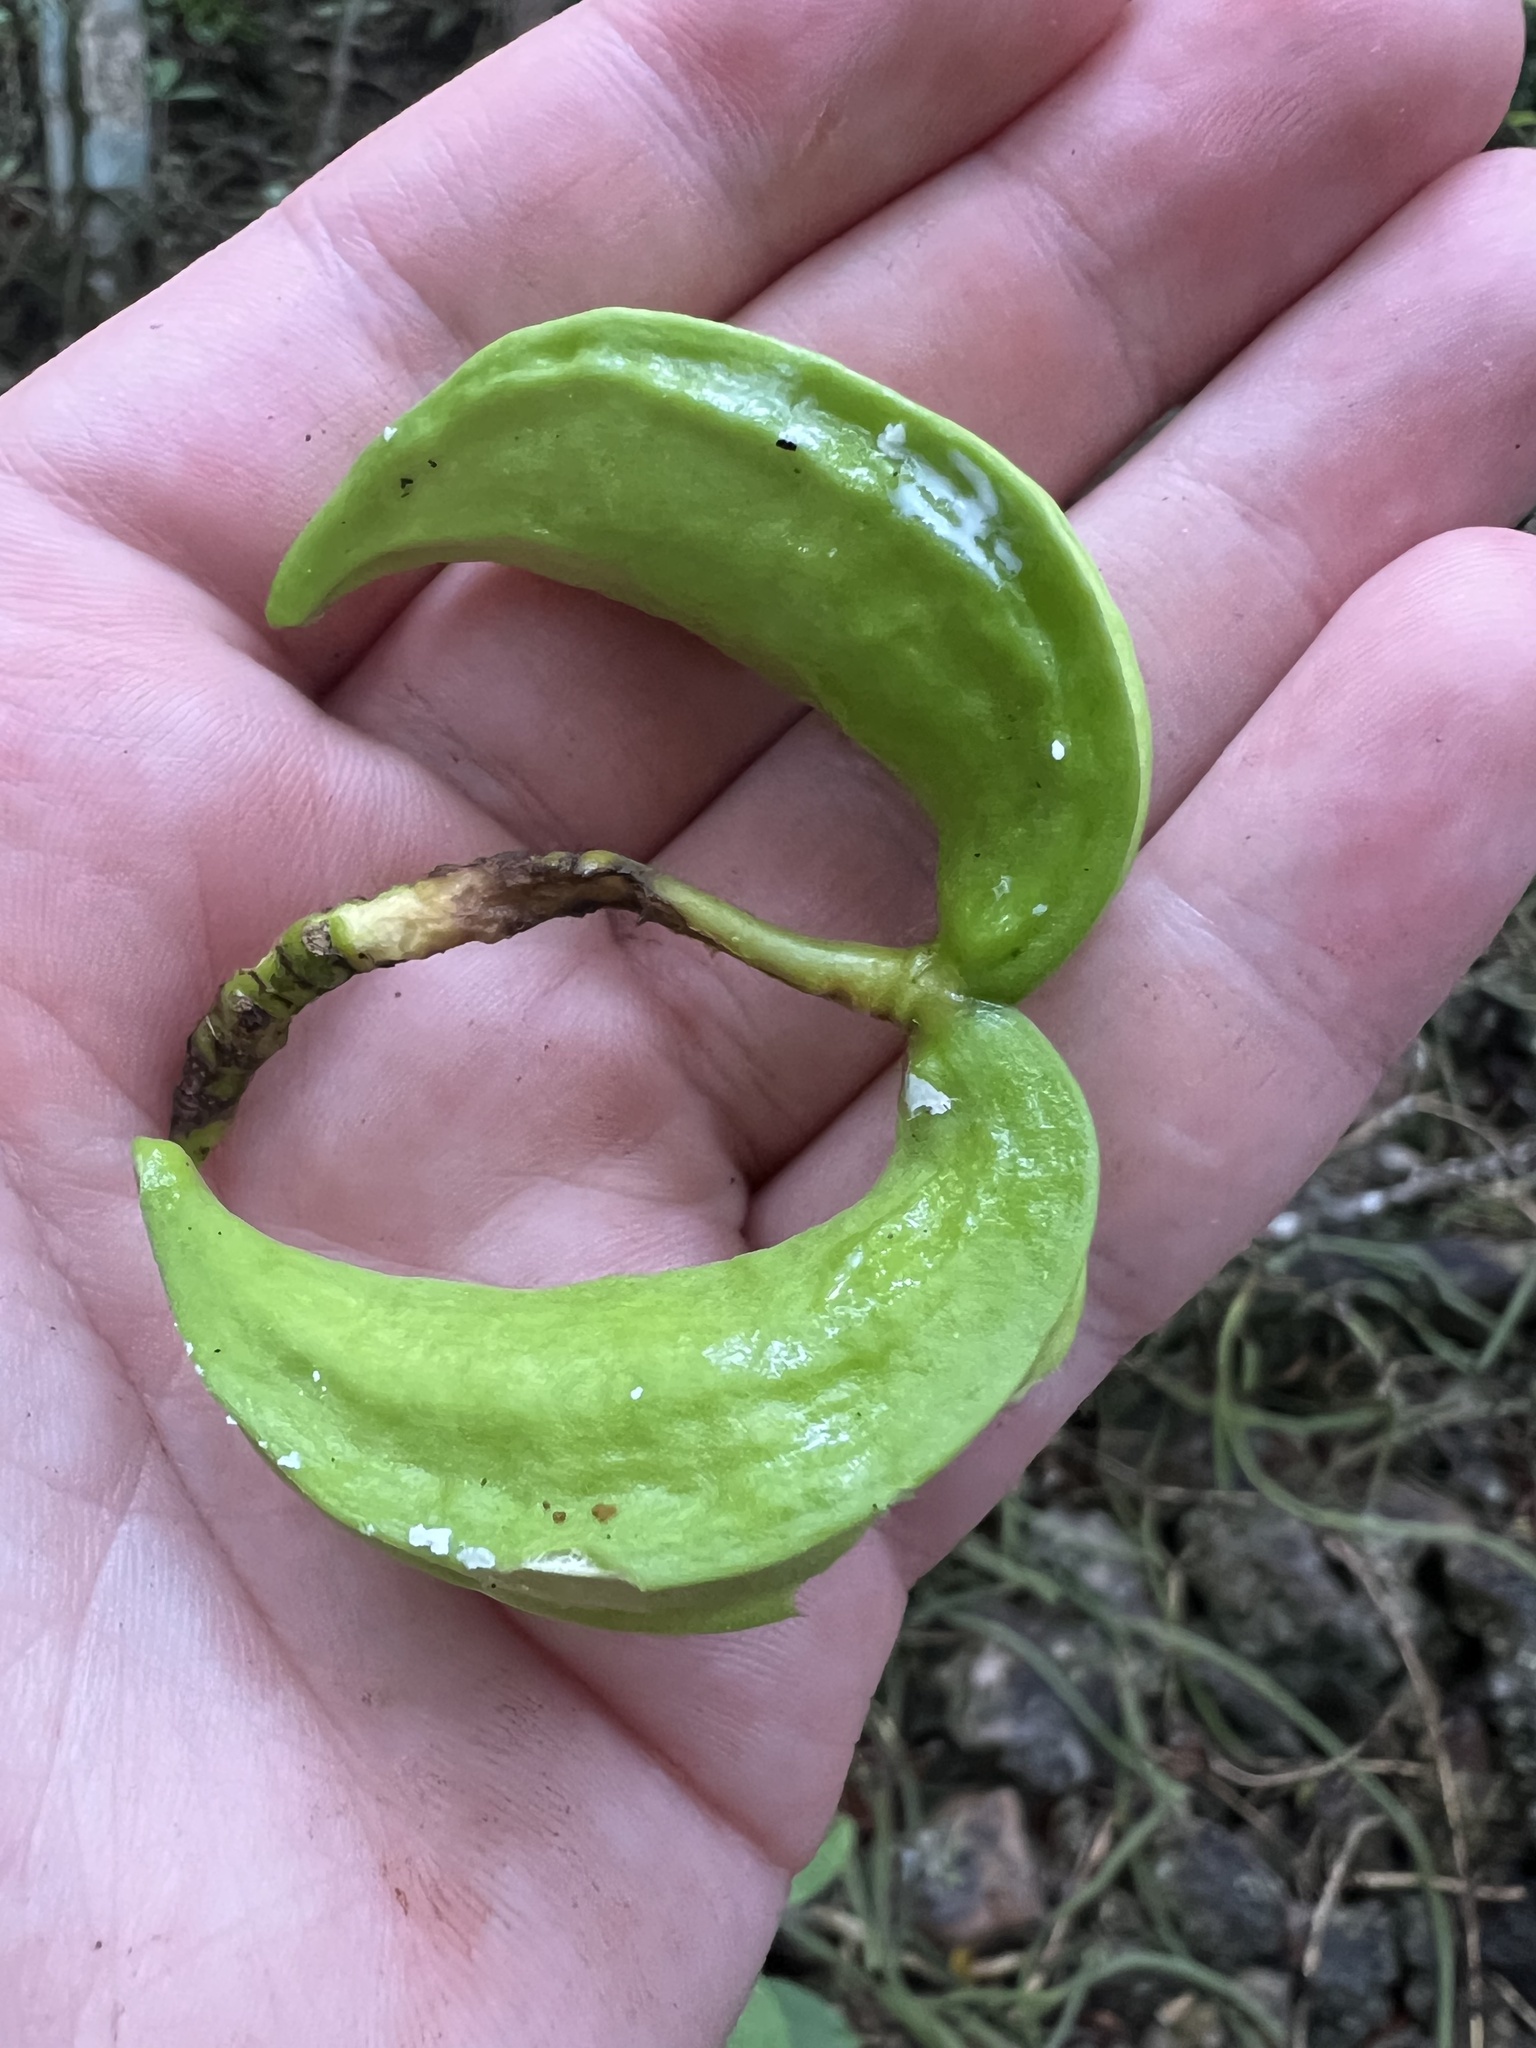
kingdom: Plantae
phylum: Tracheophyta
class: Magnoliopsida
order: Gentianales
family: Apocynaceae
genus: Tabernaemontana
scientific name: Tabernaemontana laurifolia
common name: Slingshot
